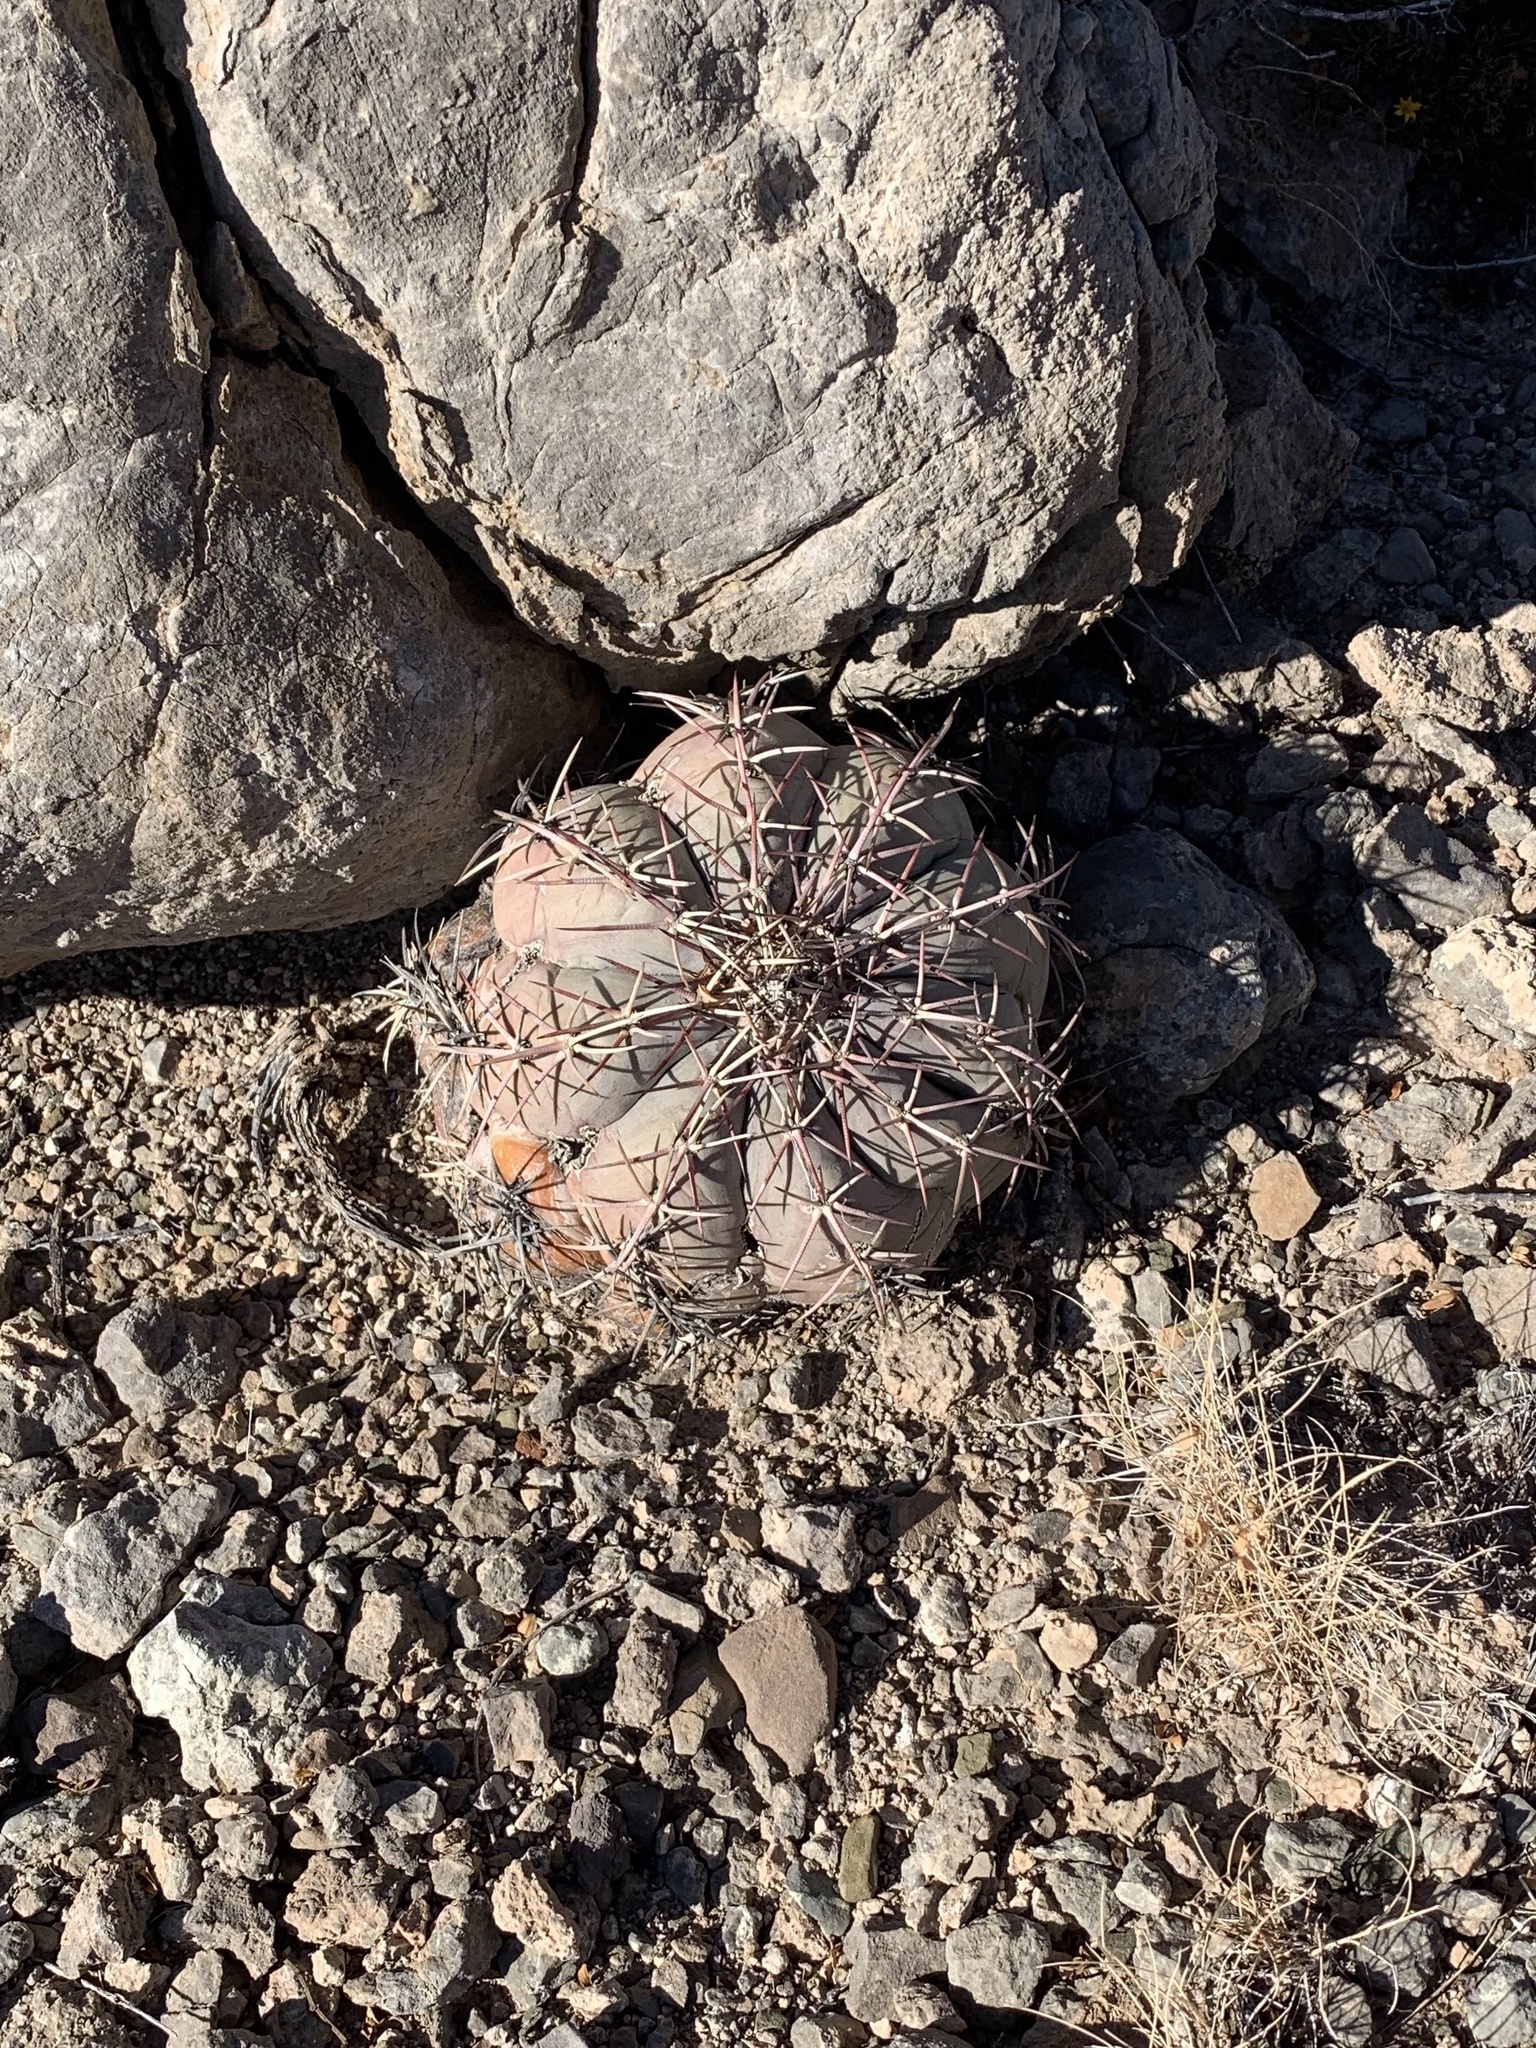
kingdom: Plantae
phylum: Tracheophyta
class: Magnoliopsida
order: Caryophyllales
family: Cactaceae
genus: Echinocactus
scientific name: Echinocactus horizonthalonius
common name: Devilshead
